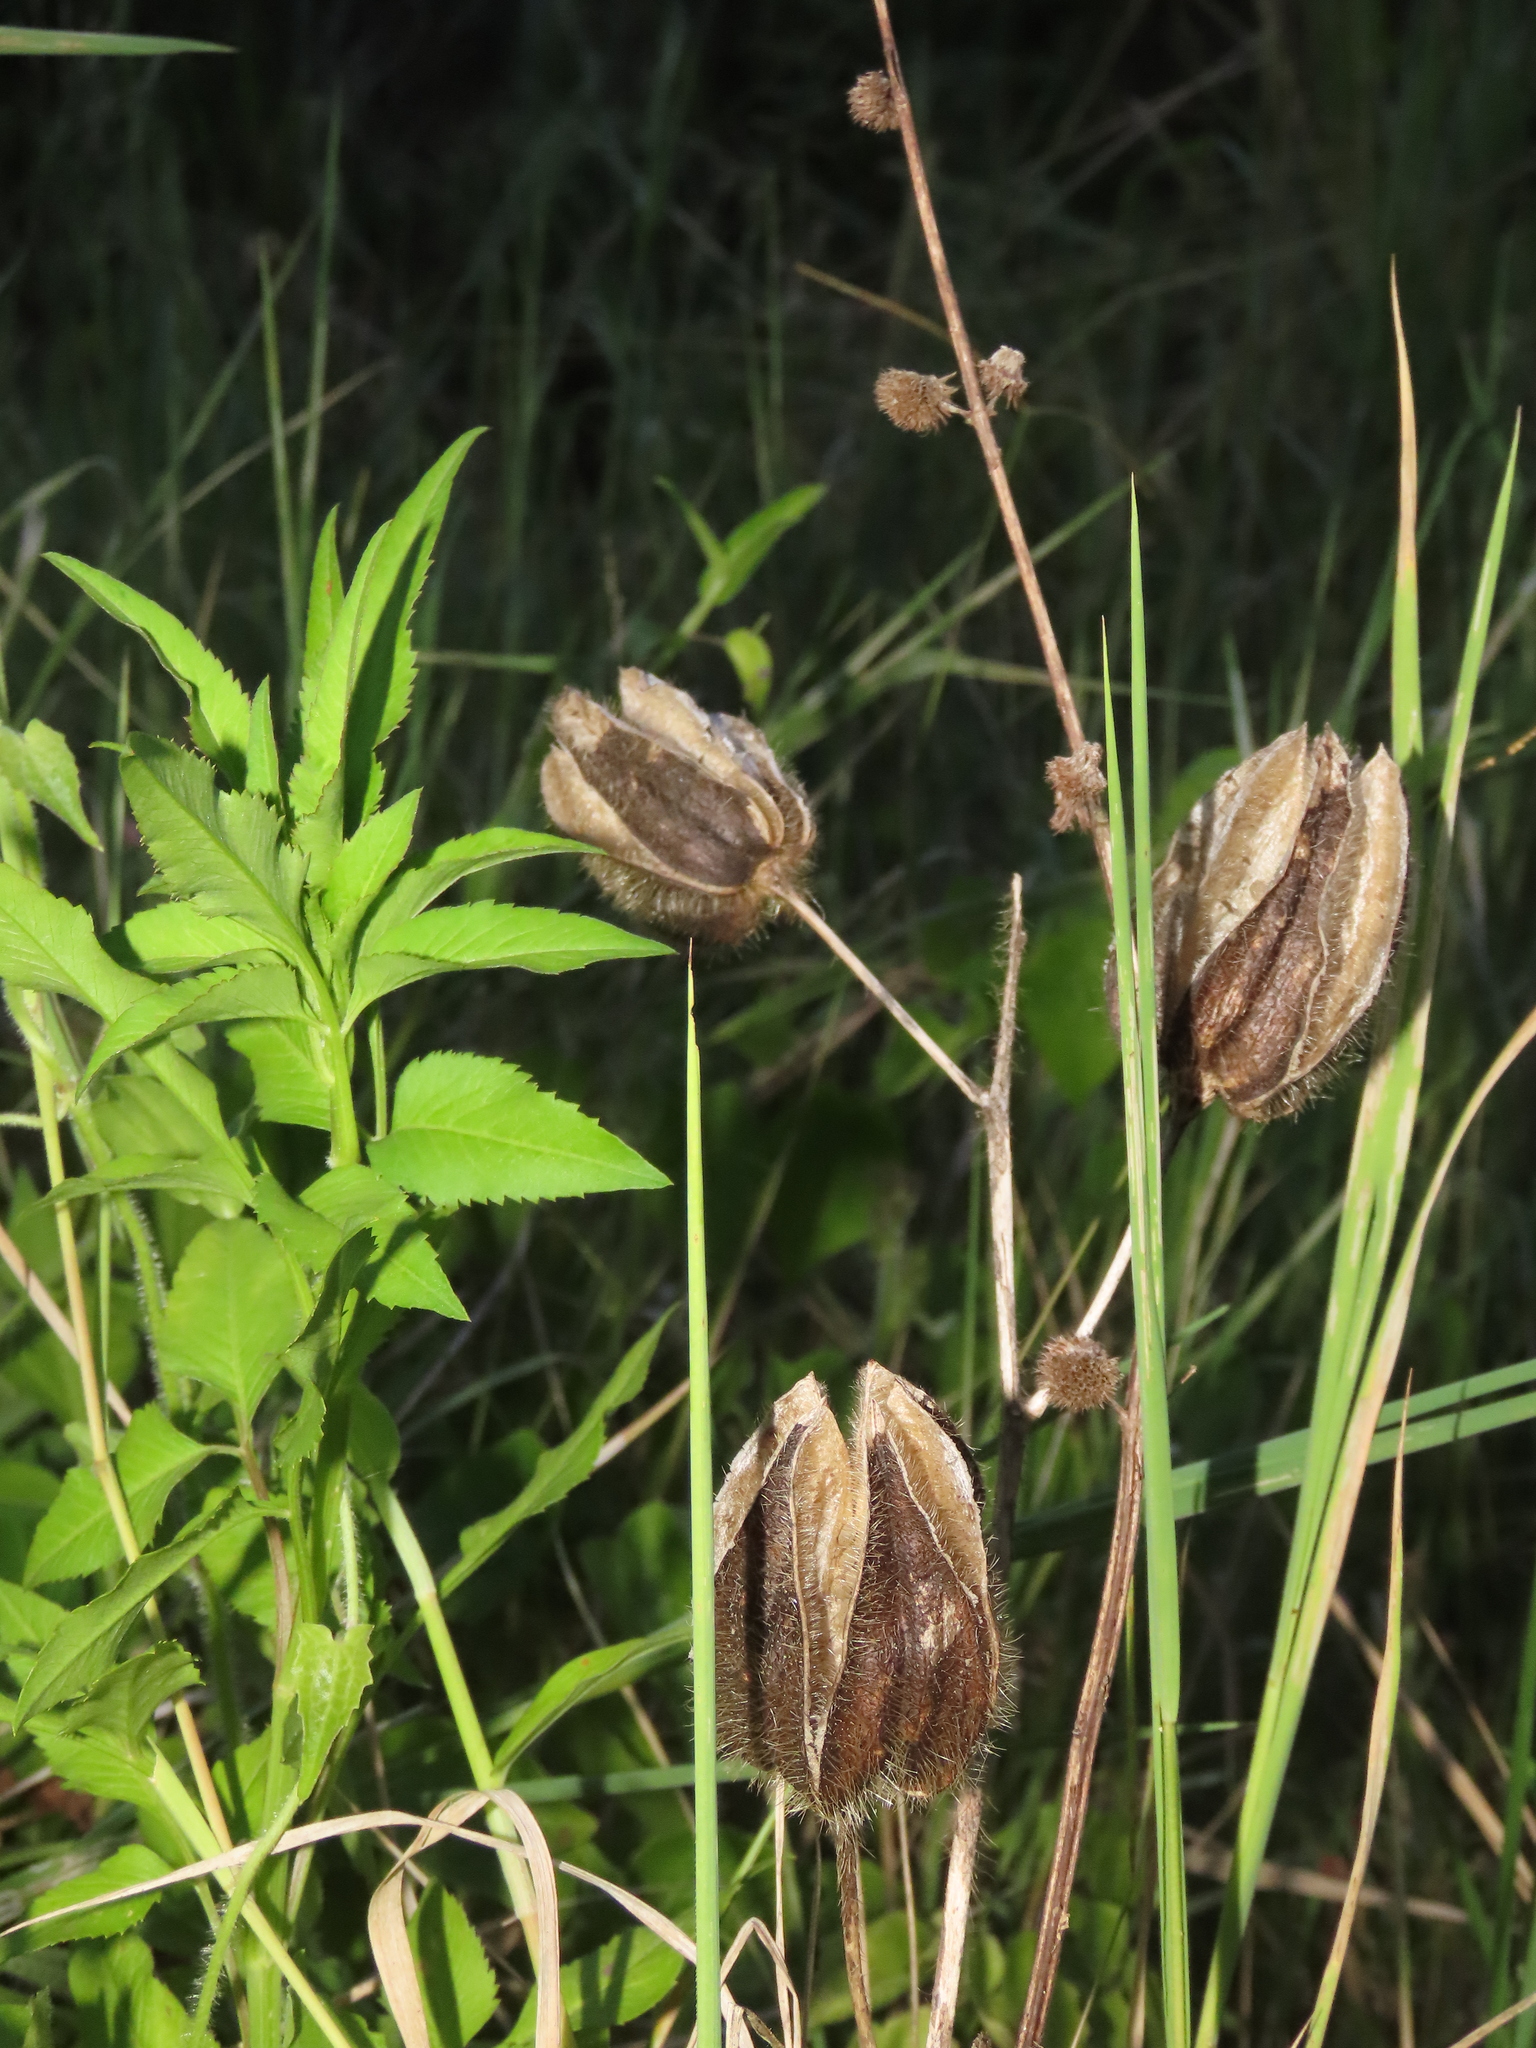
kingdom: Plantae
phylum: Tracheophyta
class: Magnoliopsida
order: Malvales
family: Malvaceae
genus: Abelmoschus
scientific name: Abelmoschus moschatus
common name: Musk okra
